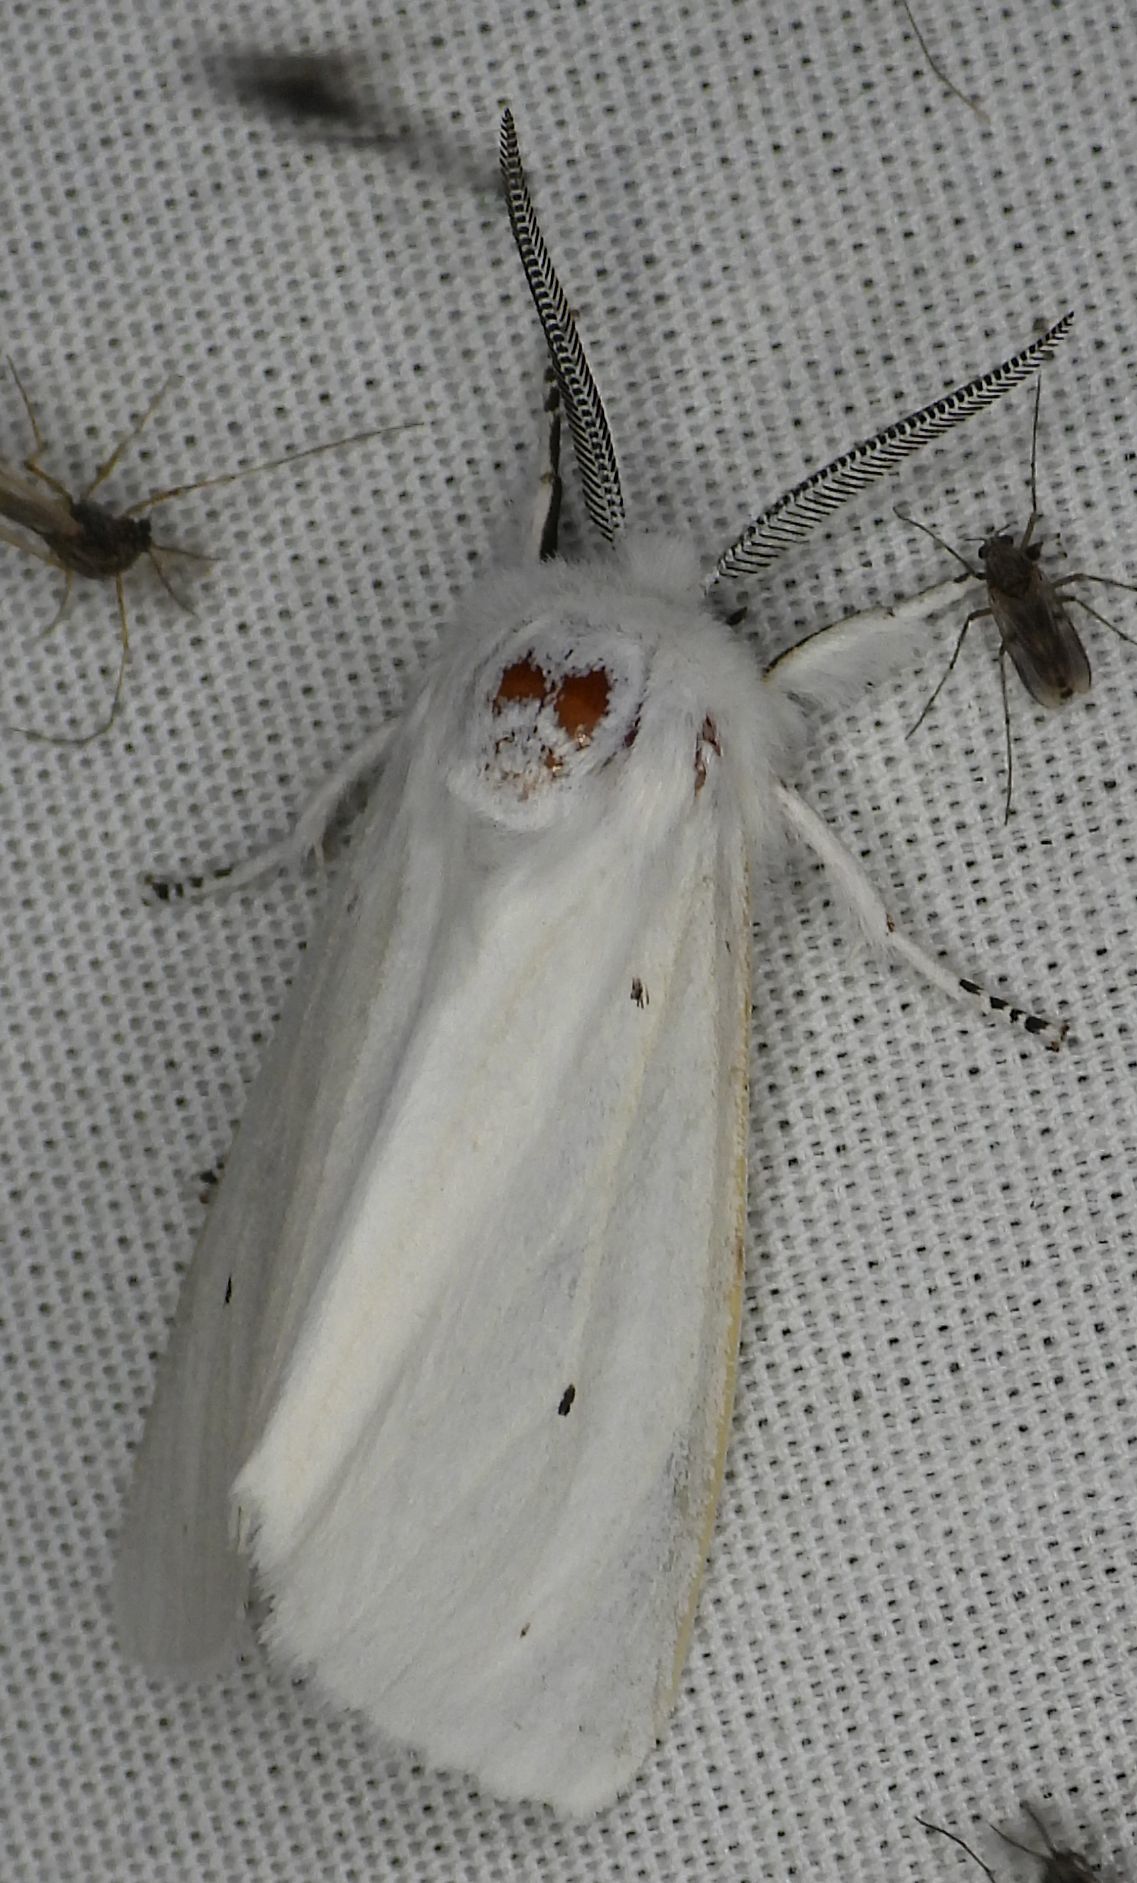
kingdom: Animalia
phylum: Arthropoda
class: Insecta
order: Lepidoptera
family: Erebidae
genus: Spilosoma
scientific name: Spilosoma virginica
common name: Virginia tiger moth
